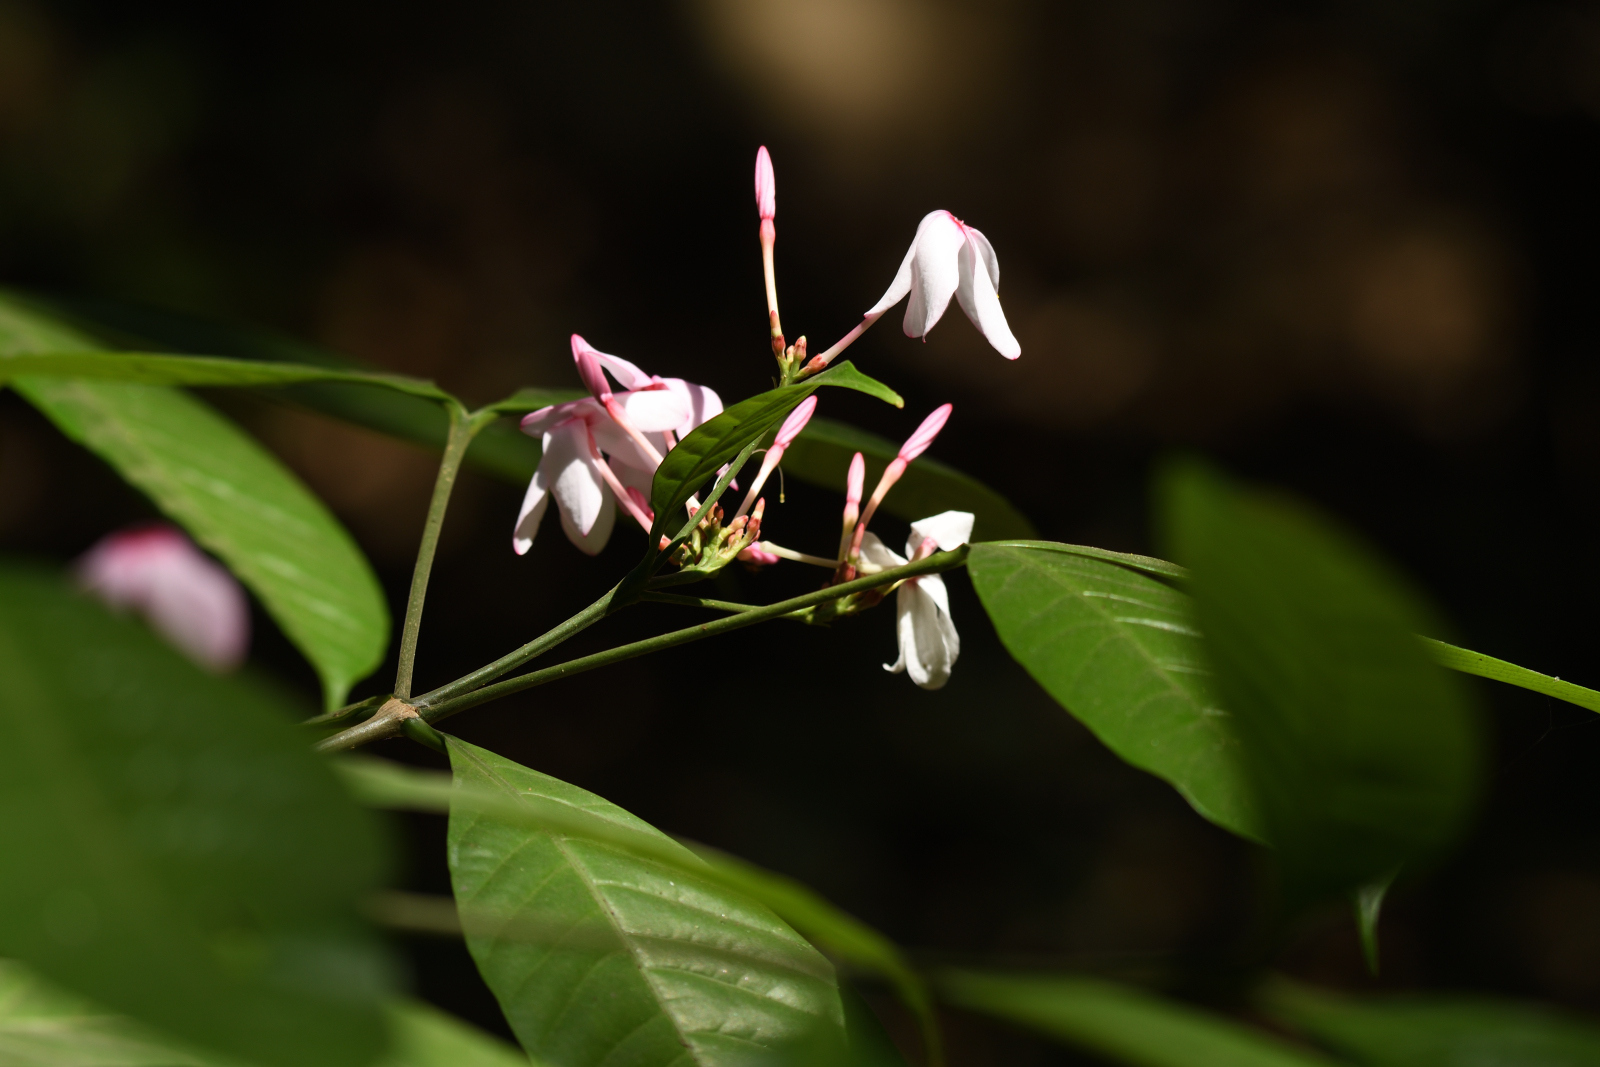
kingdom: Plantae
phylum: Tracheophyta
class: Magnoliopsida
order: Gentianales
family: Apocynaceae
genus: Kopsia
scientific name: Kopsia fruticosa
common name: Shrub-vinca
